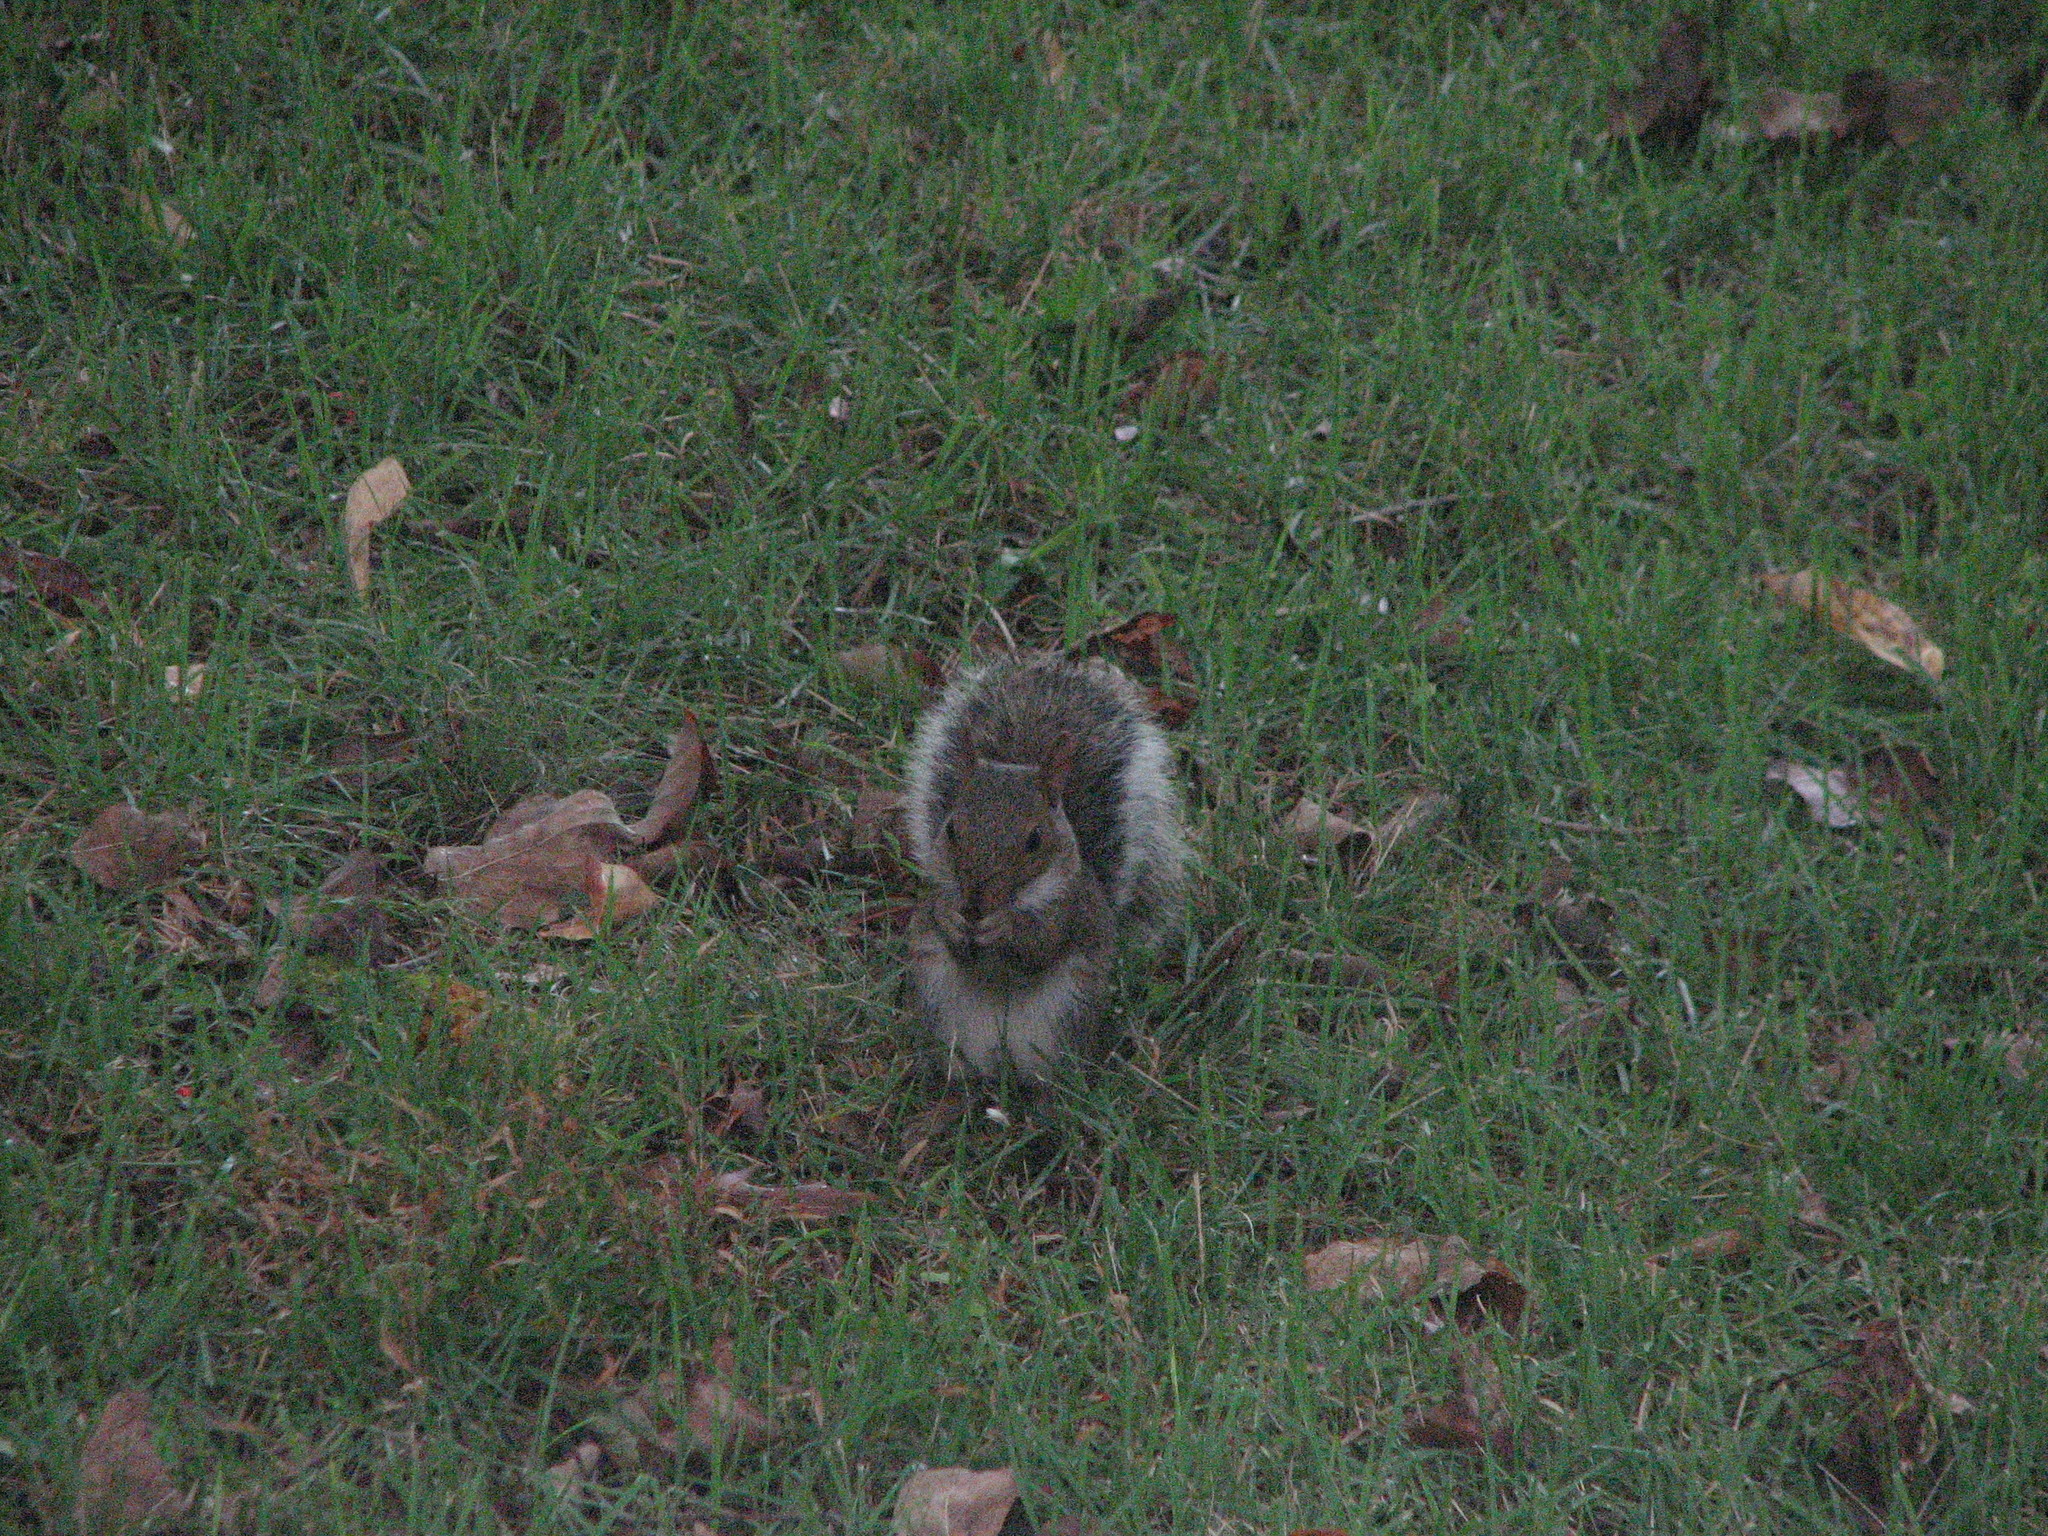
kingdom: Animalia
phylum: Chordata
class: Mammalia
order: Rodentia
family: Sciuridae
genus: Sciurus
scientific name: Sciurus carolinensis
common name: Eastern gray squirrel
